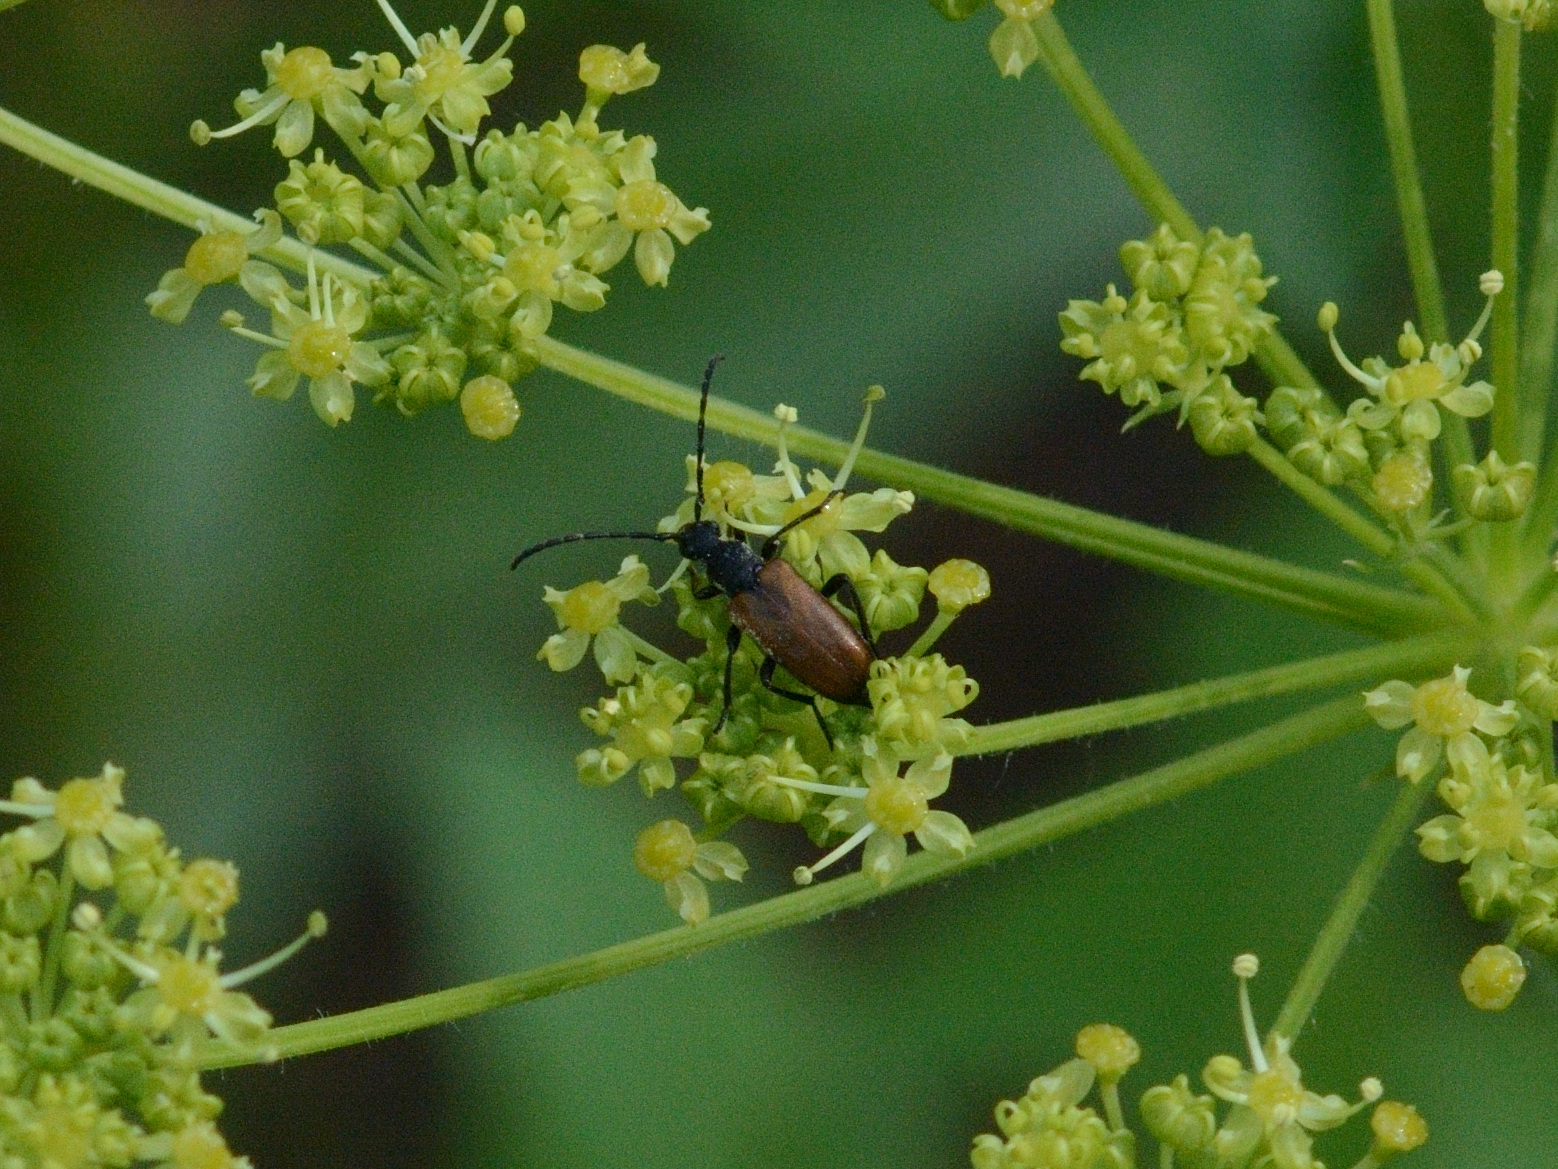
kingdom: Animalia
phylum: Arthropoda
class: Insecta
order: Coleoptera
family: Cerambycidae
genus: Paracorymbia
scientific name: Paracorymbia maculicornis
